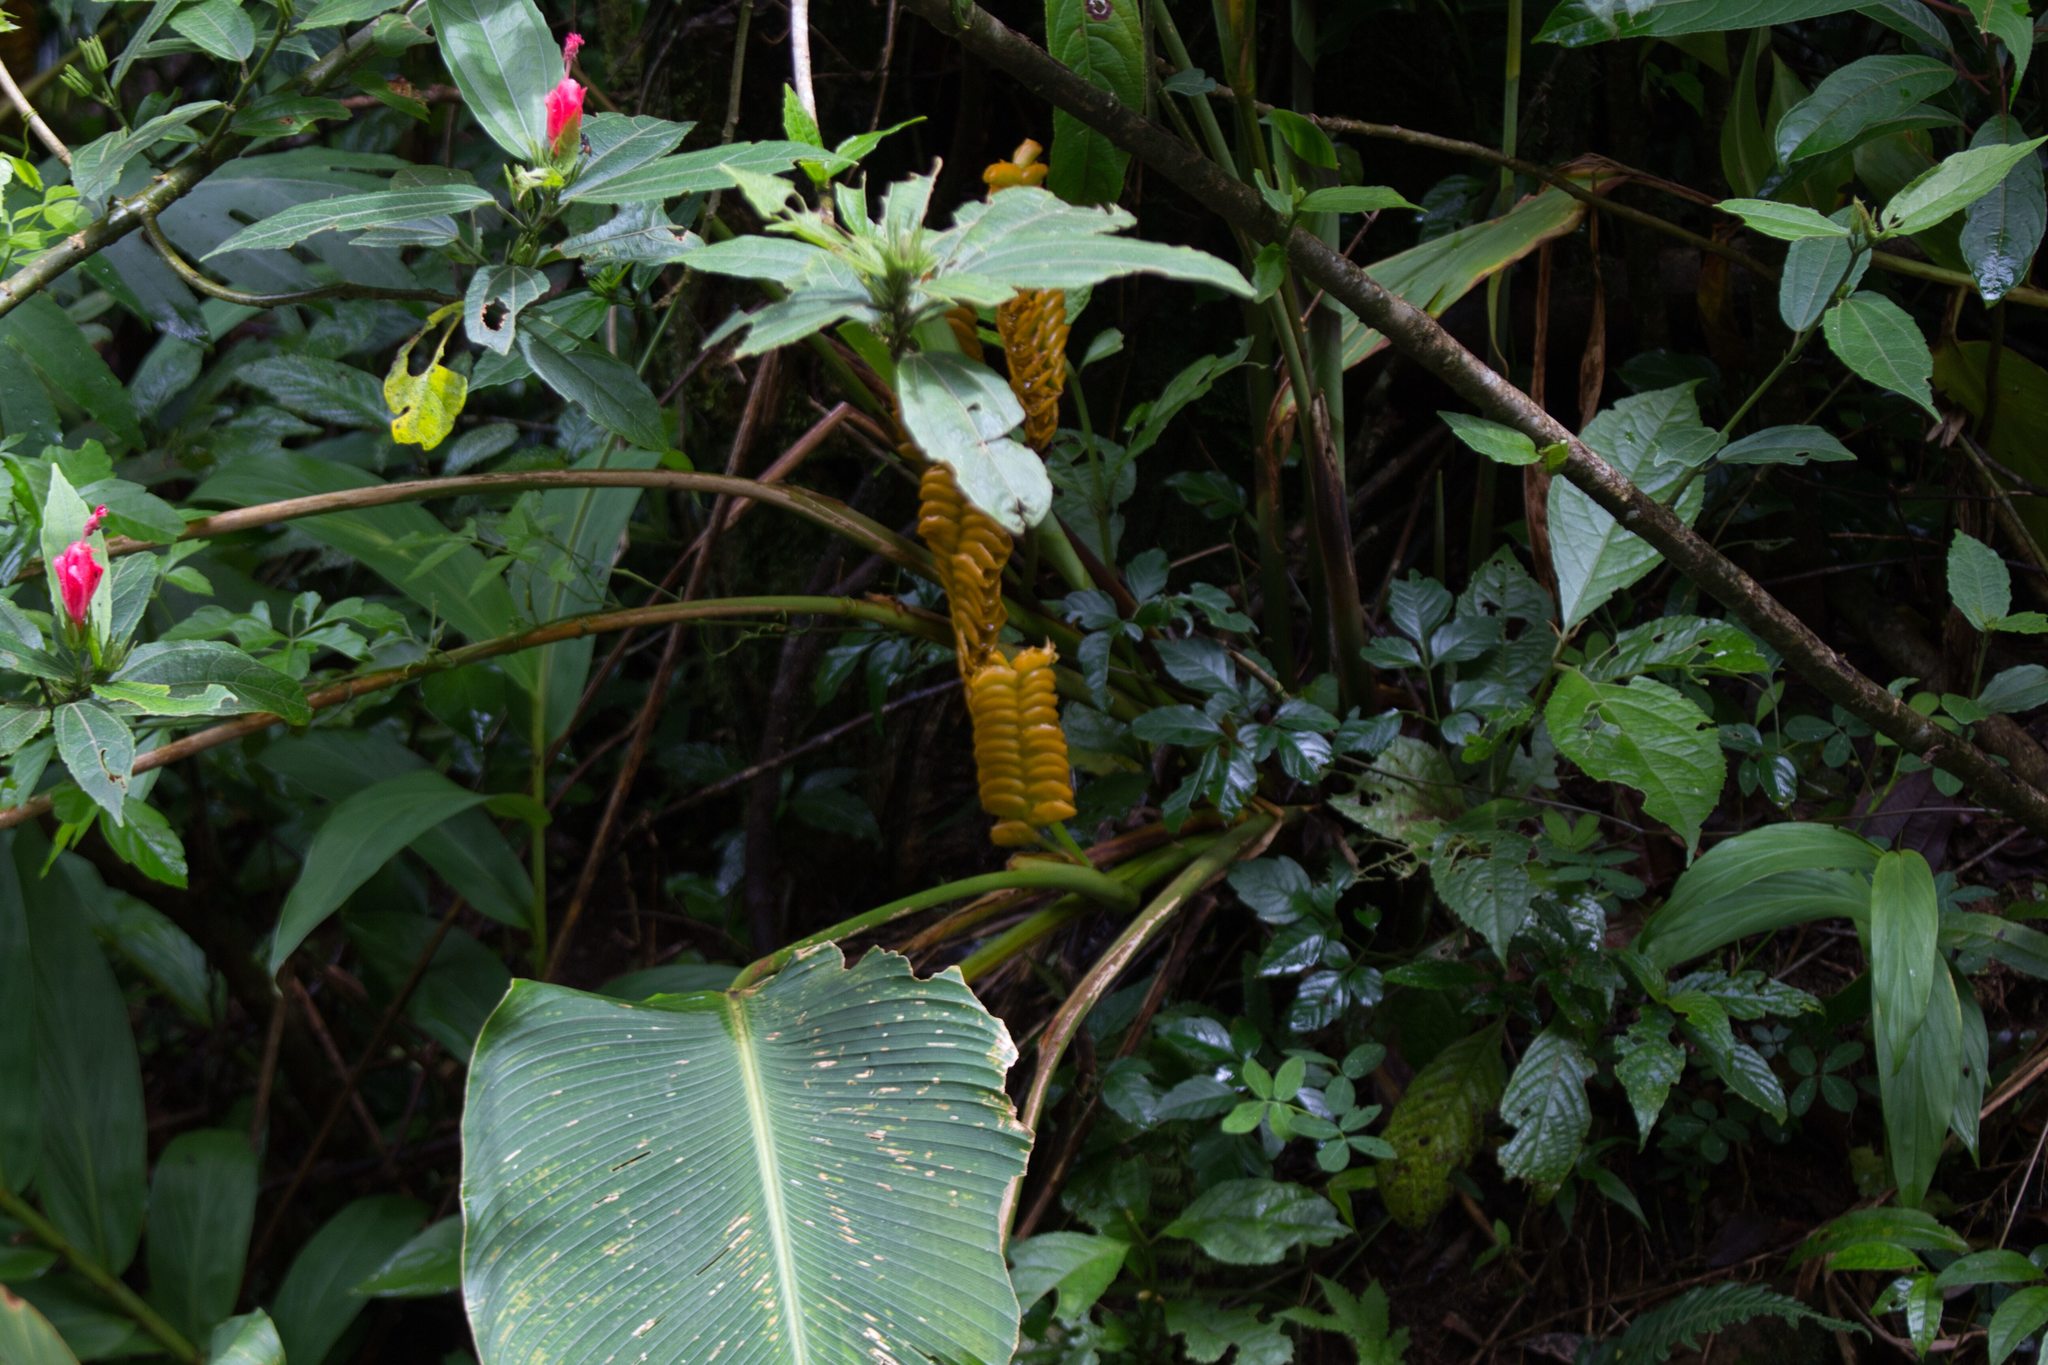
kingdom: Plantae
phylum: Tracheophyta
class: Liliopsida
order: Zingiberales
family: Marantaceae
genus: Calathea
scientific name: Calathea crotalifera
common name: Rattlesnake plant
